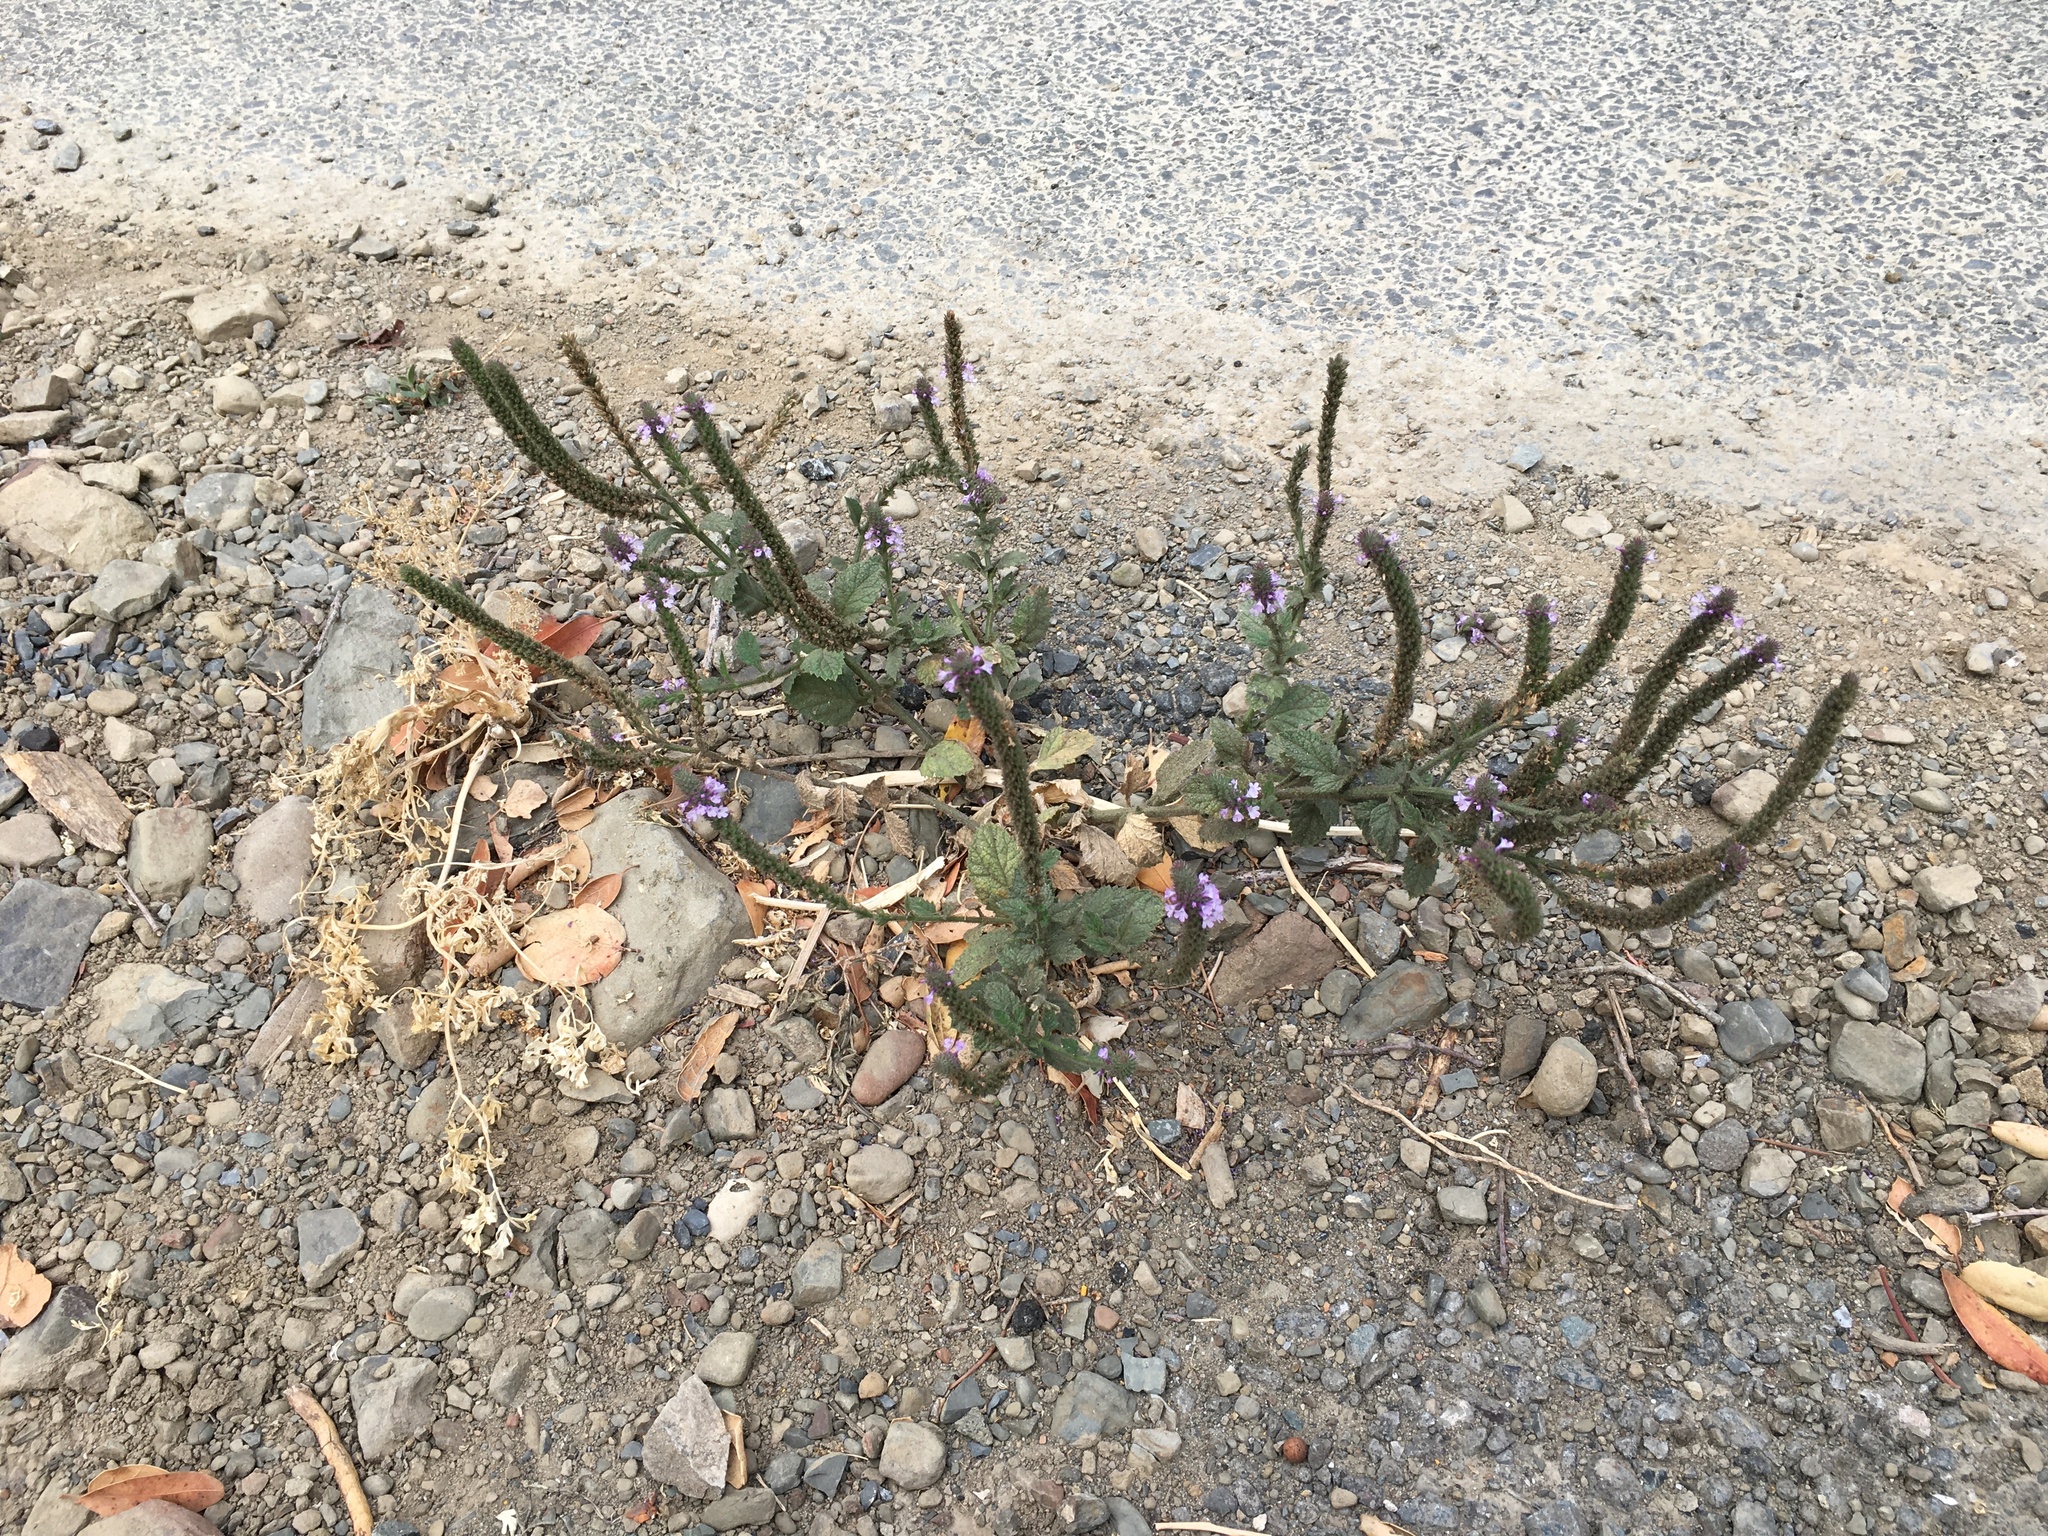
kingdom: Plantae
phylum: Tracheophyta
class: Magnoliopsida
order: Lamiales
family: Verbenaceae
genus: Verbena
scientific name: Verbena lasiostachys
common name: Vervain
